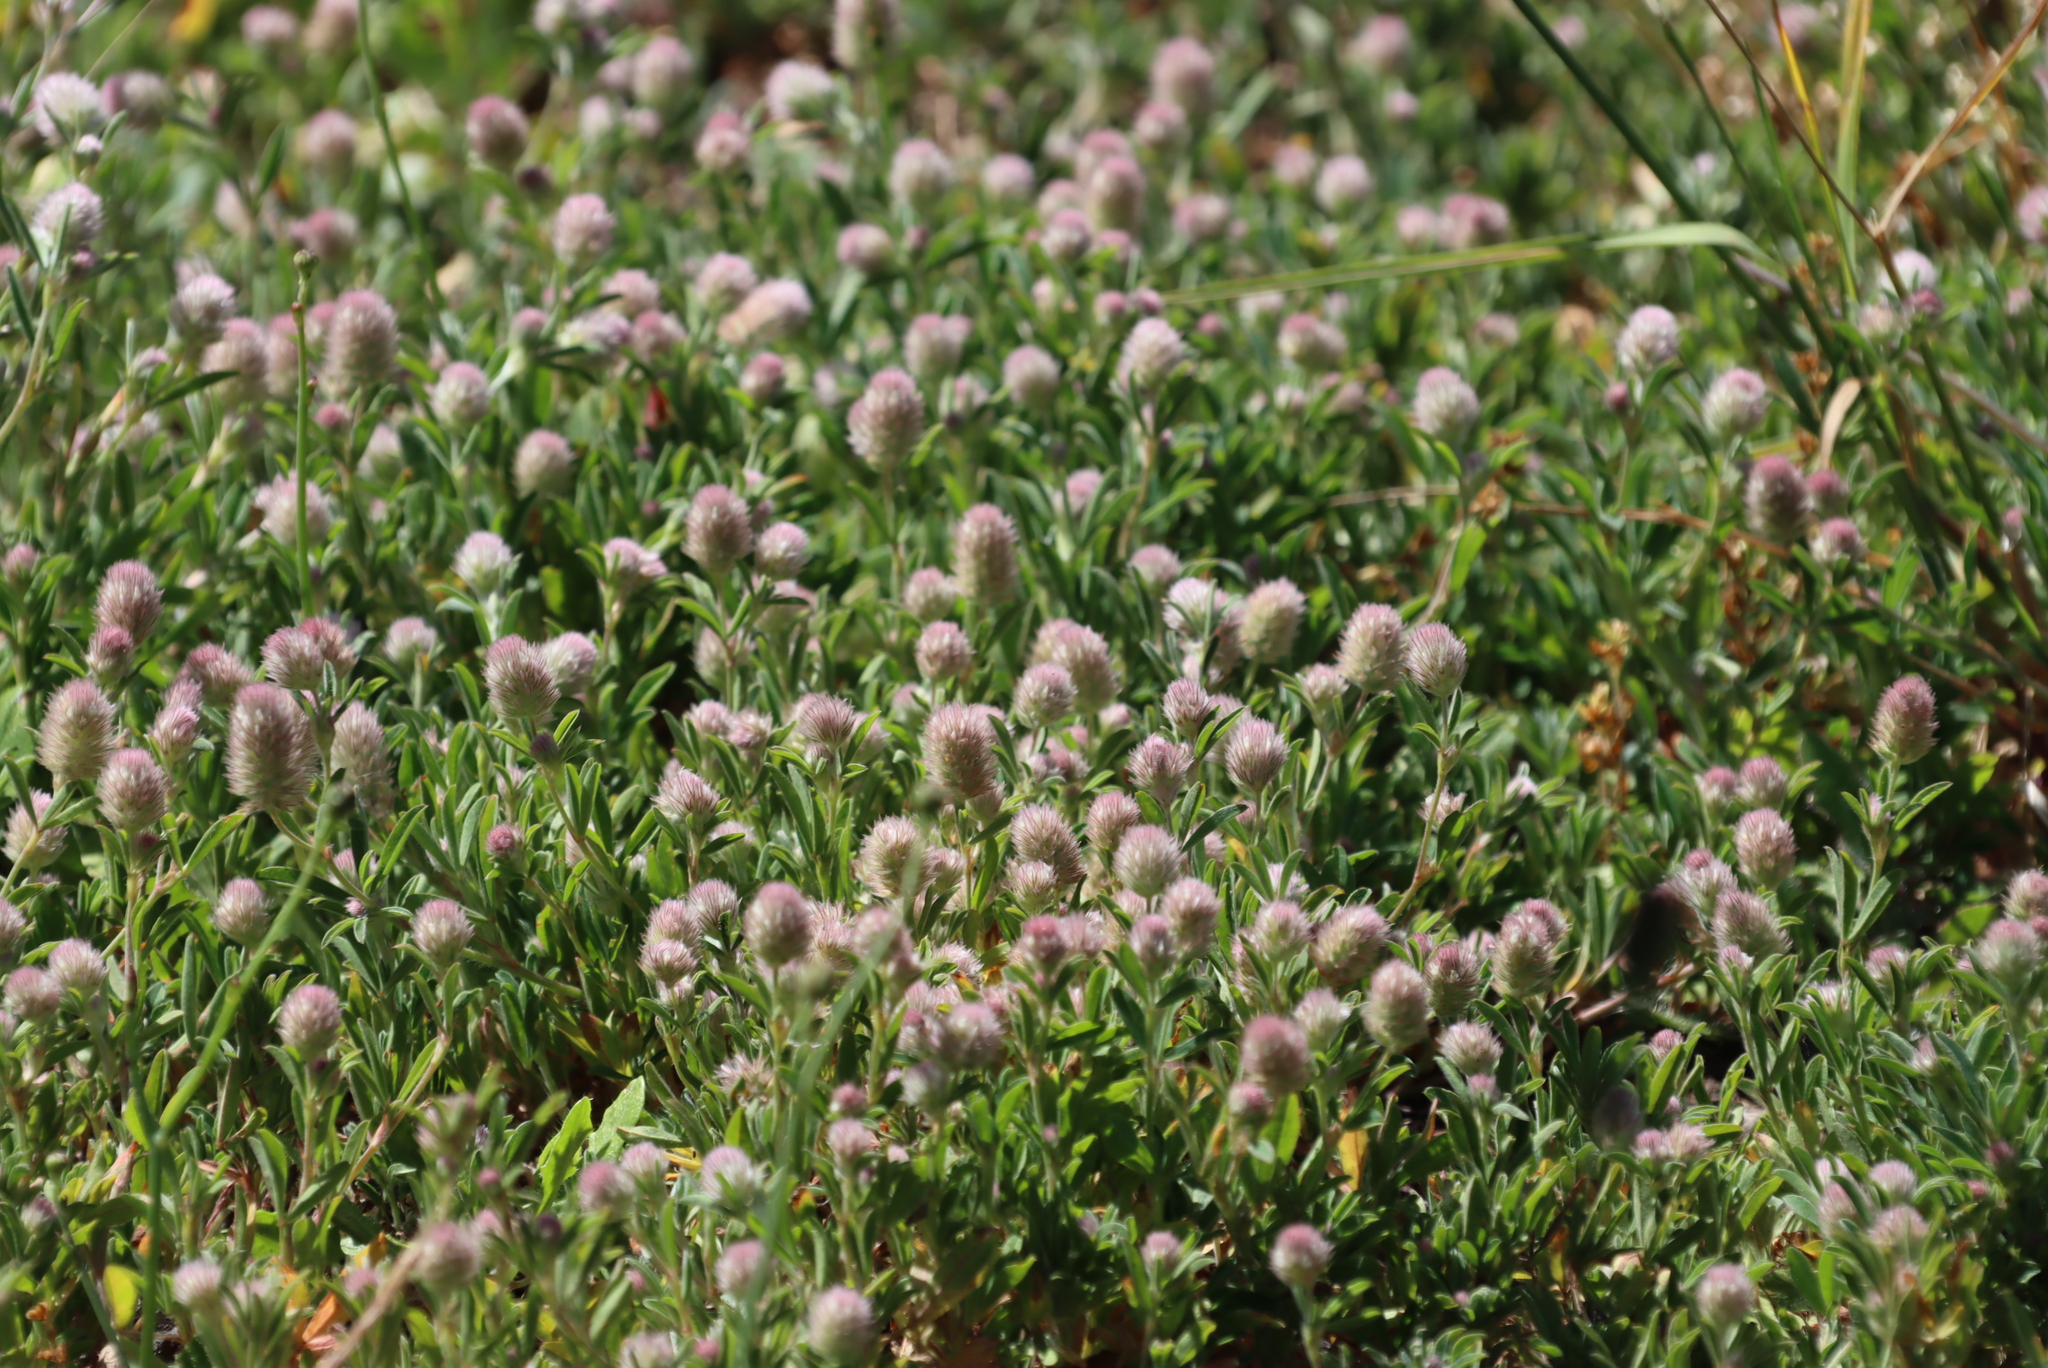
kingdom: Plantae
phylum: Tracheophyta
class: Magnoliopsida
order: Fabales
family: Fabaceae
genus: Trifolium
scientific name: Trifolium arvense
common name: Hare's-foot clover
